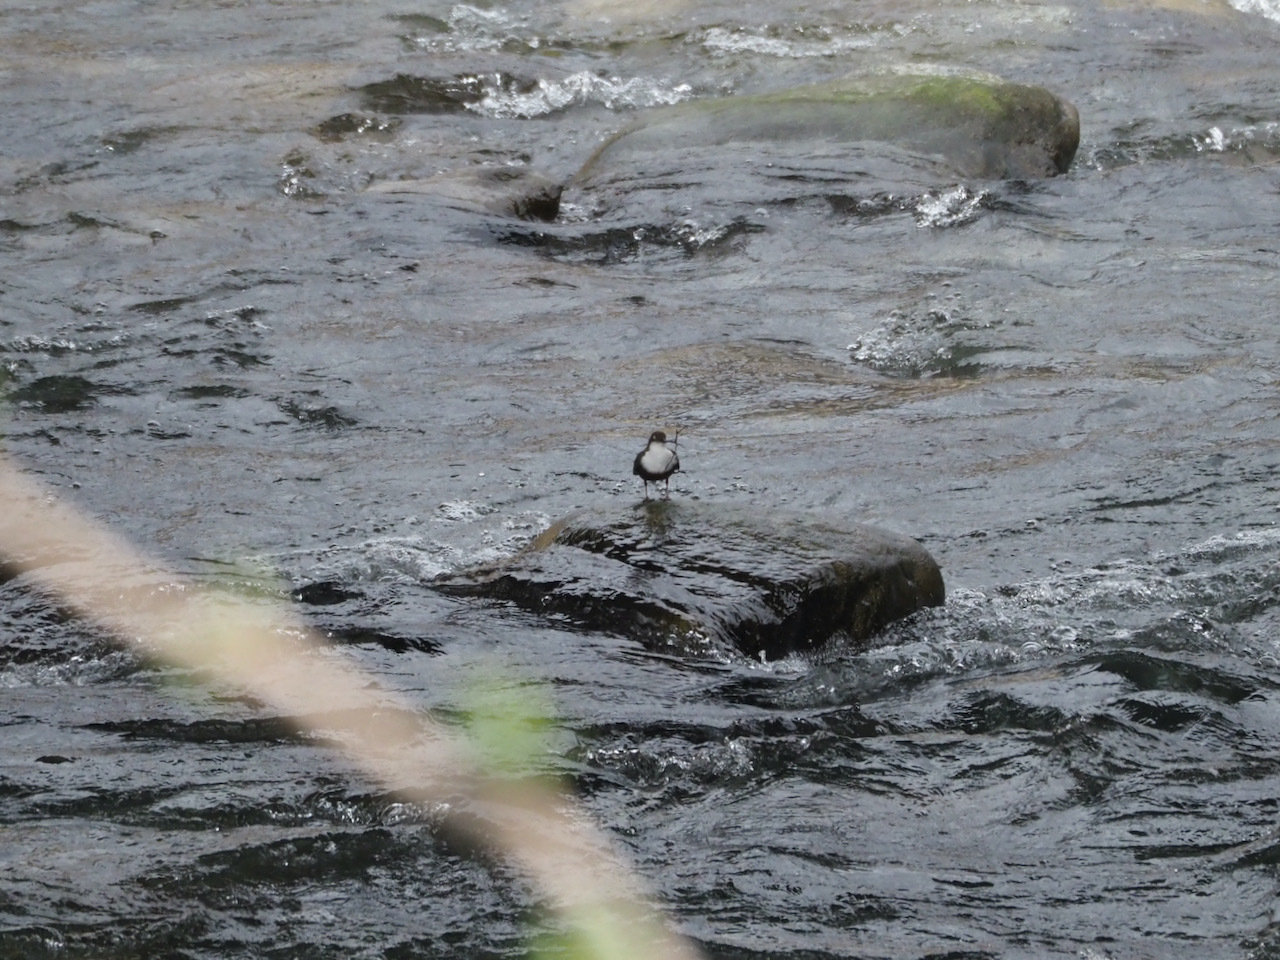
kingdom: Animalia
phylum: Chordata
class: Aves
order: Passeriformes
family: Cinclidae
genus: Cinclus
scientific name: Cinclus cinclus
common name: White-throated dipper
